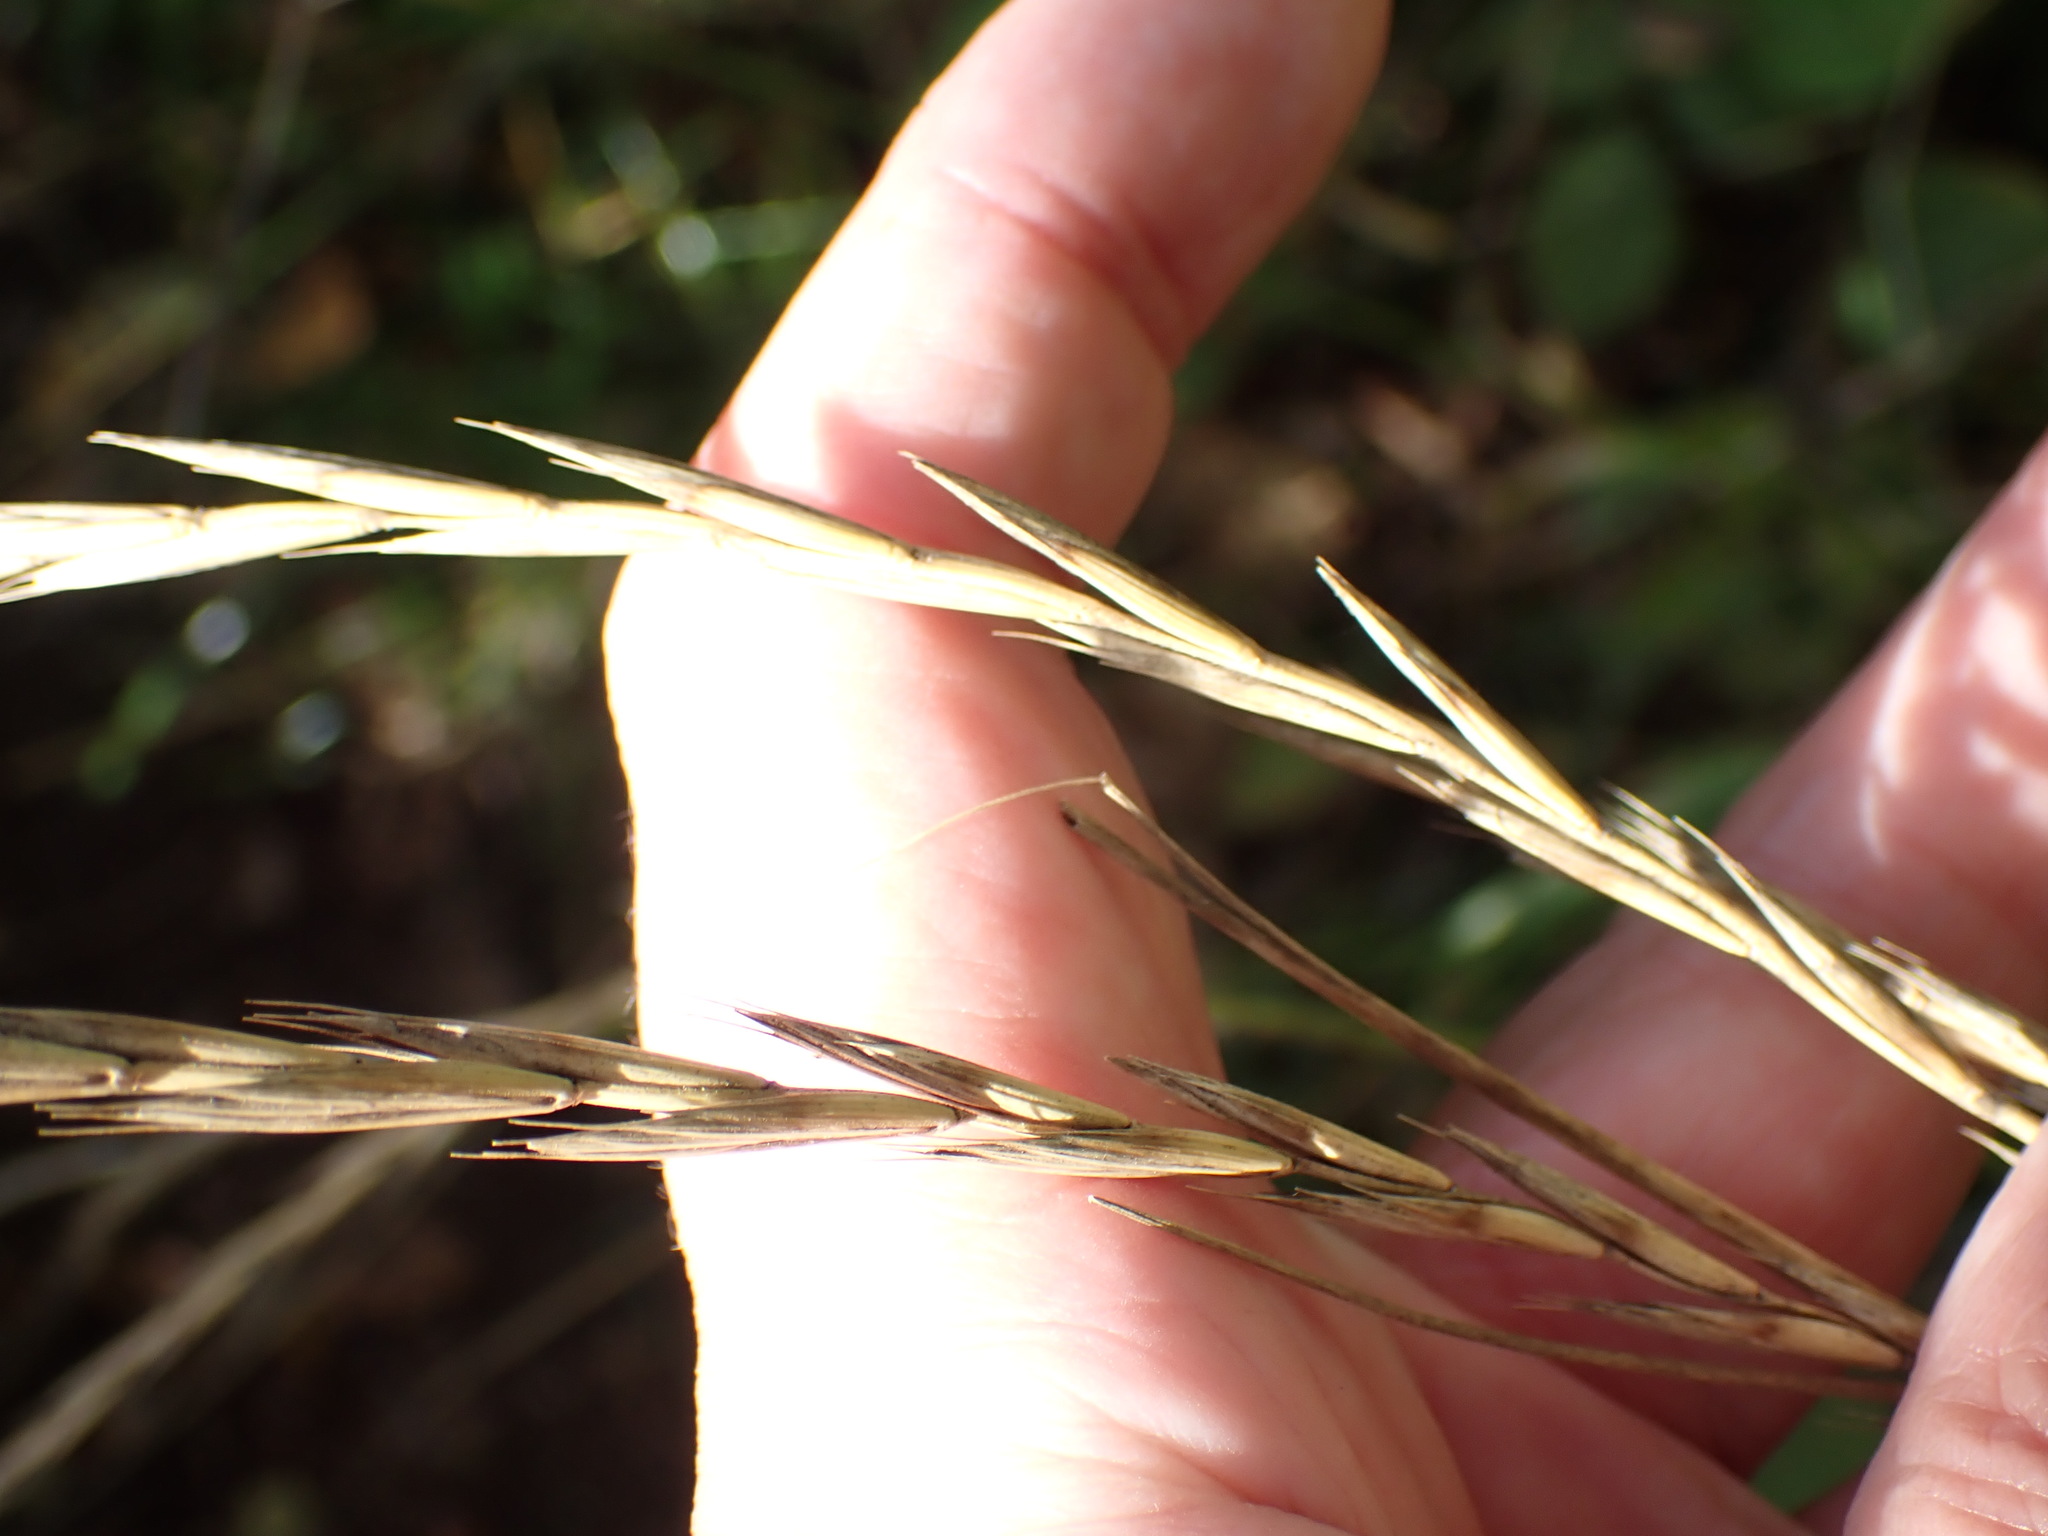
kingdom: Plantae
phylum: Tracheophyta
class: Liliopsida
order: Poales
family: Poaceae
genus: Elymus
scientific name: Elymus repens
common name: Quackgrass
